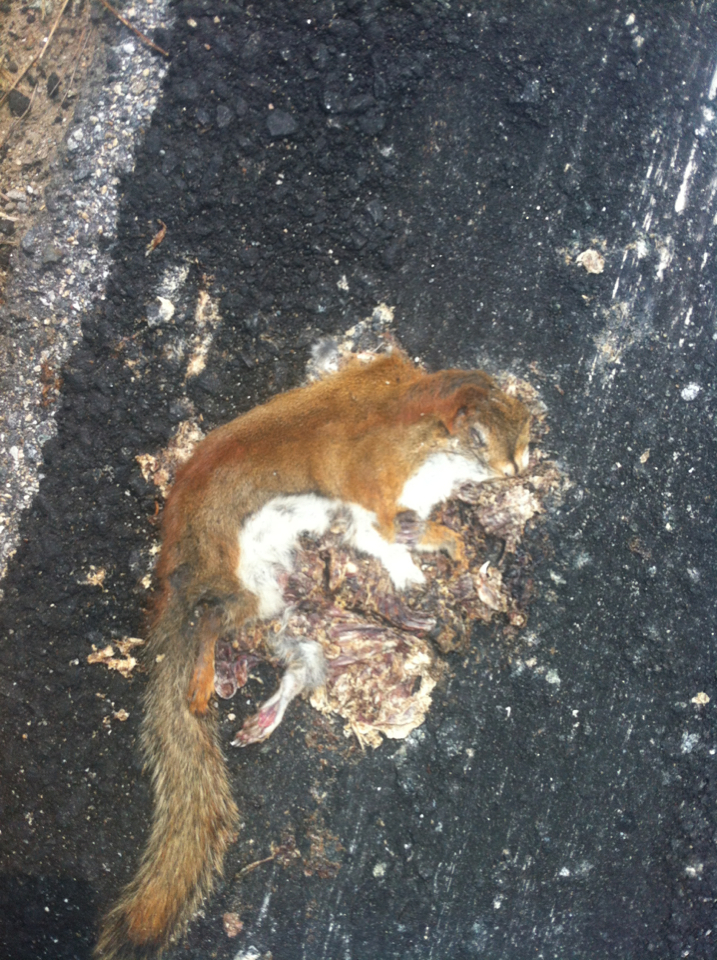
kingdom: Animalia
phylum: Chordata
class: Mammalia
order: Rodentia
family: Sciuridae
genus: Tamiasciurus
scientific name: Tamiasciurus hudsonicus
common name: Red squirrel
